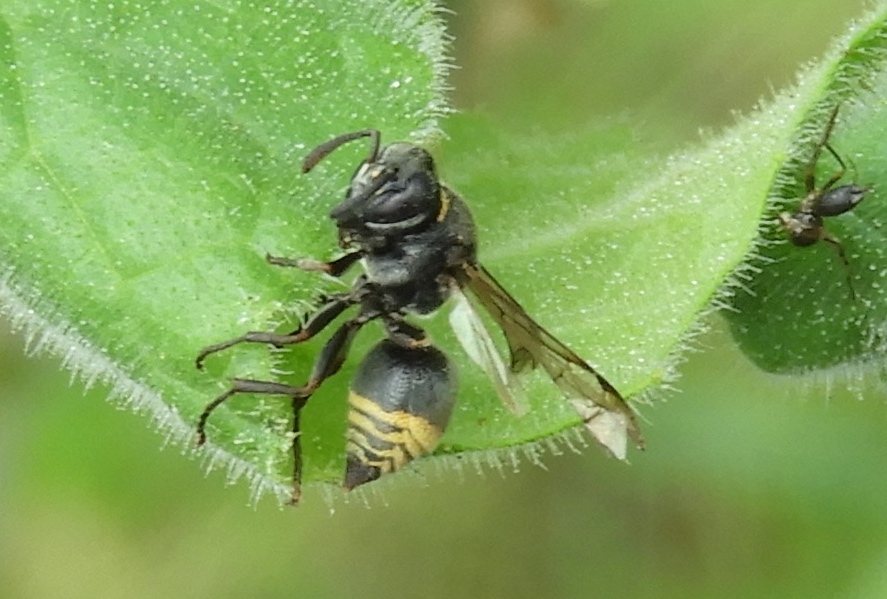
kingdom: Animalia
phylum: Arthropoda
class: Insecta
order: Hymenoptera
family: Vespidae
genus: Brachygastra
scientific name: Brachygastra azteca
